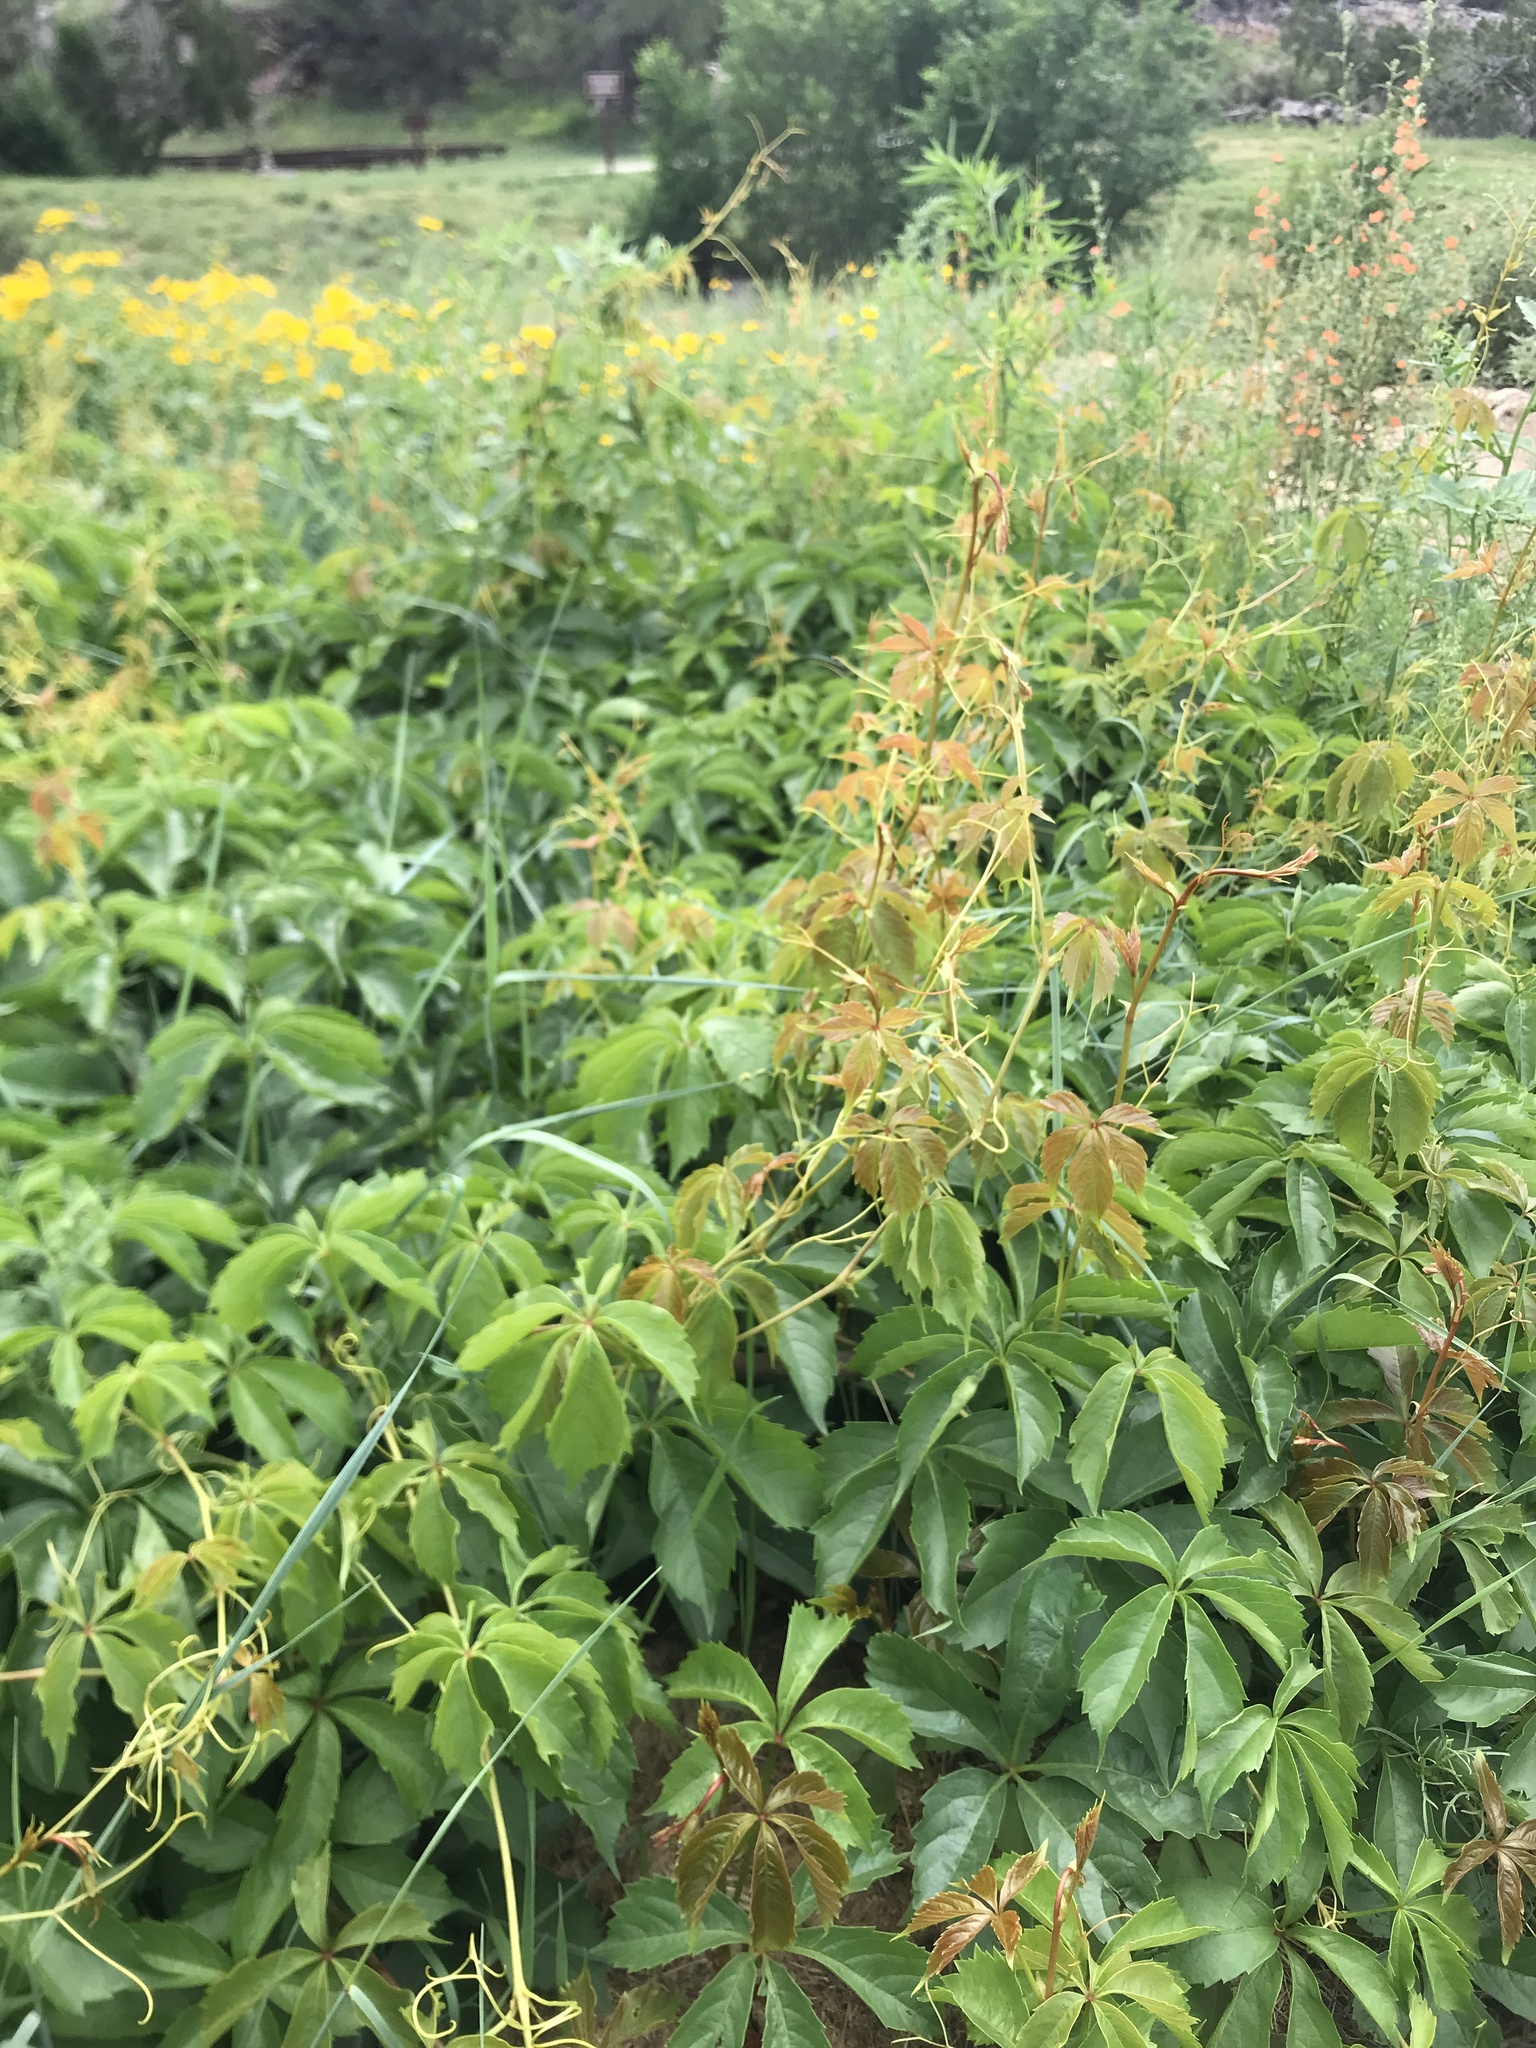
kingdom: Plantae
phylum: Tracheophyta
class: Magnoliopsida
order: Vitales
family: Vitaceae
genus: Parthenocissus
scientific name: Parthenocissus quinquefolia
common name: Virginia-creeper
